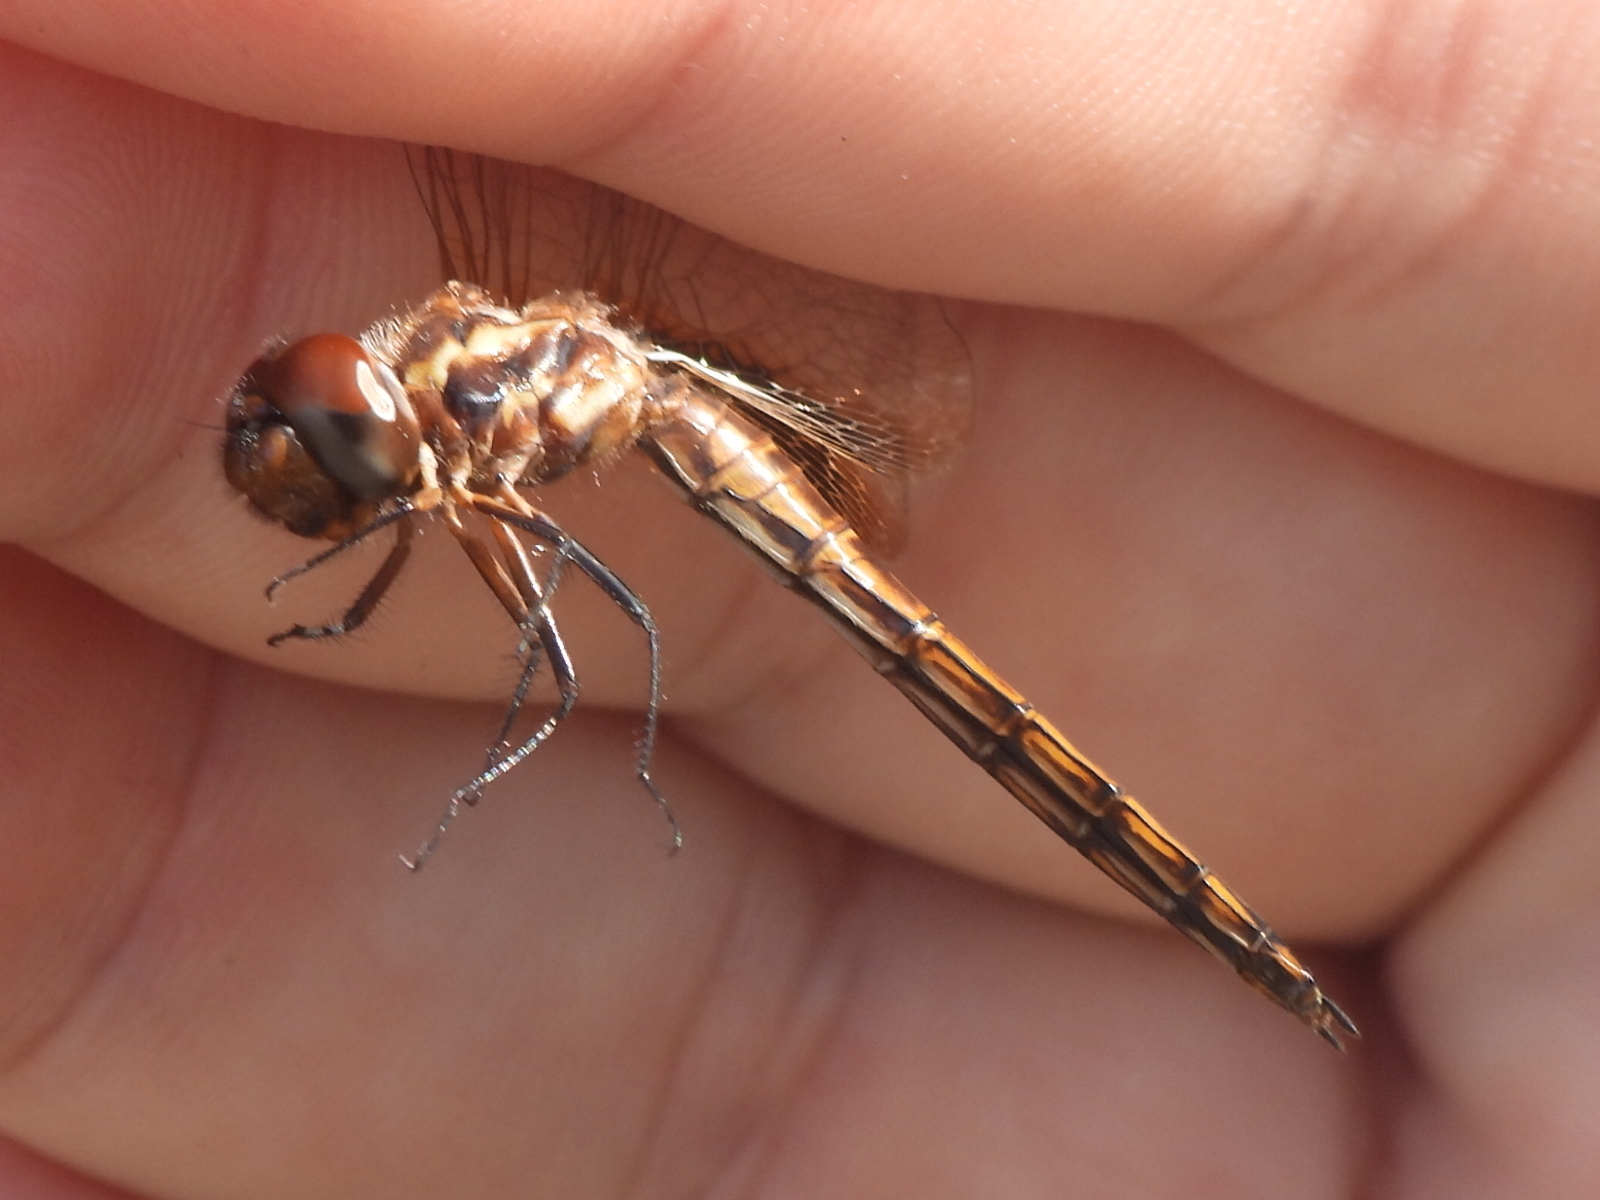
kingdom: Animalia
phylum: Arthropoda
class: Insecta
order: Odonata
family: Libellulidae
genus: Miathyria
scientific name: Miathyria marcella
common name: Hyacinth glider
